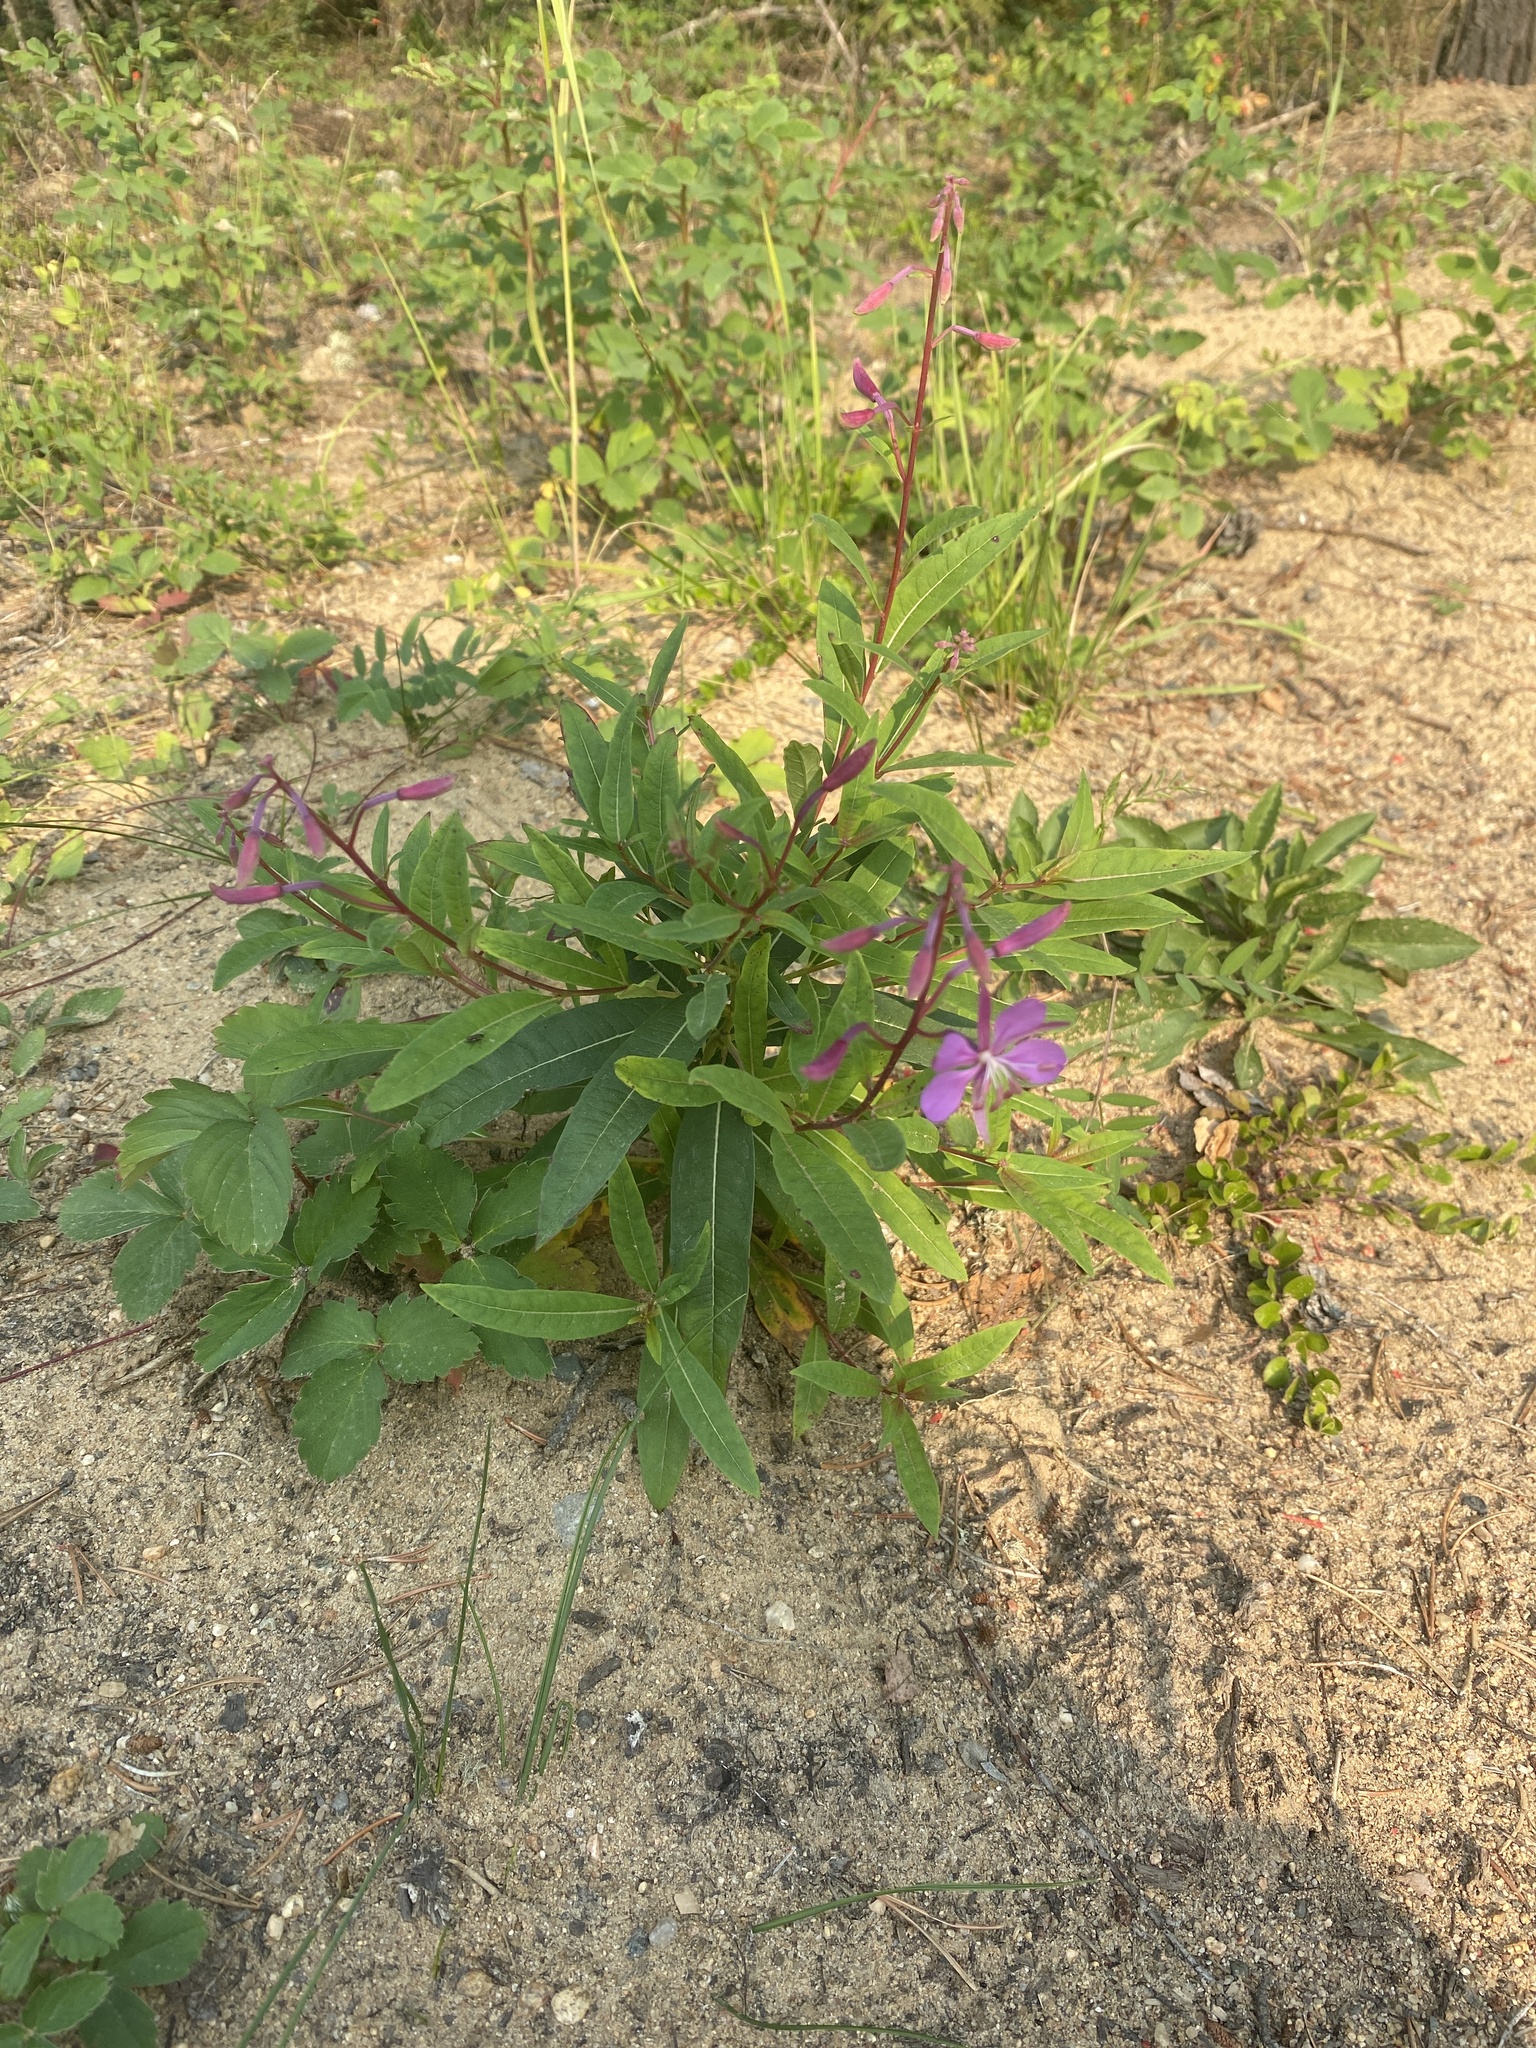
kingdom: Plantae
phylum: Tracheophyta
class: Magnoliopsida
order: Myrtales
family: Onagraceae
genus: Chamaenerion
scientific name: Chamaenerion angustifolium
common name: Fireweed
